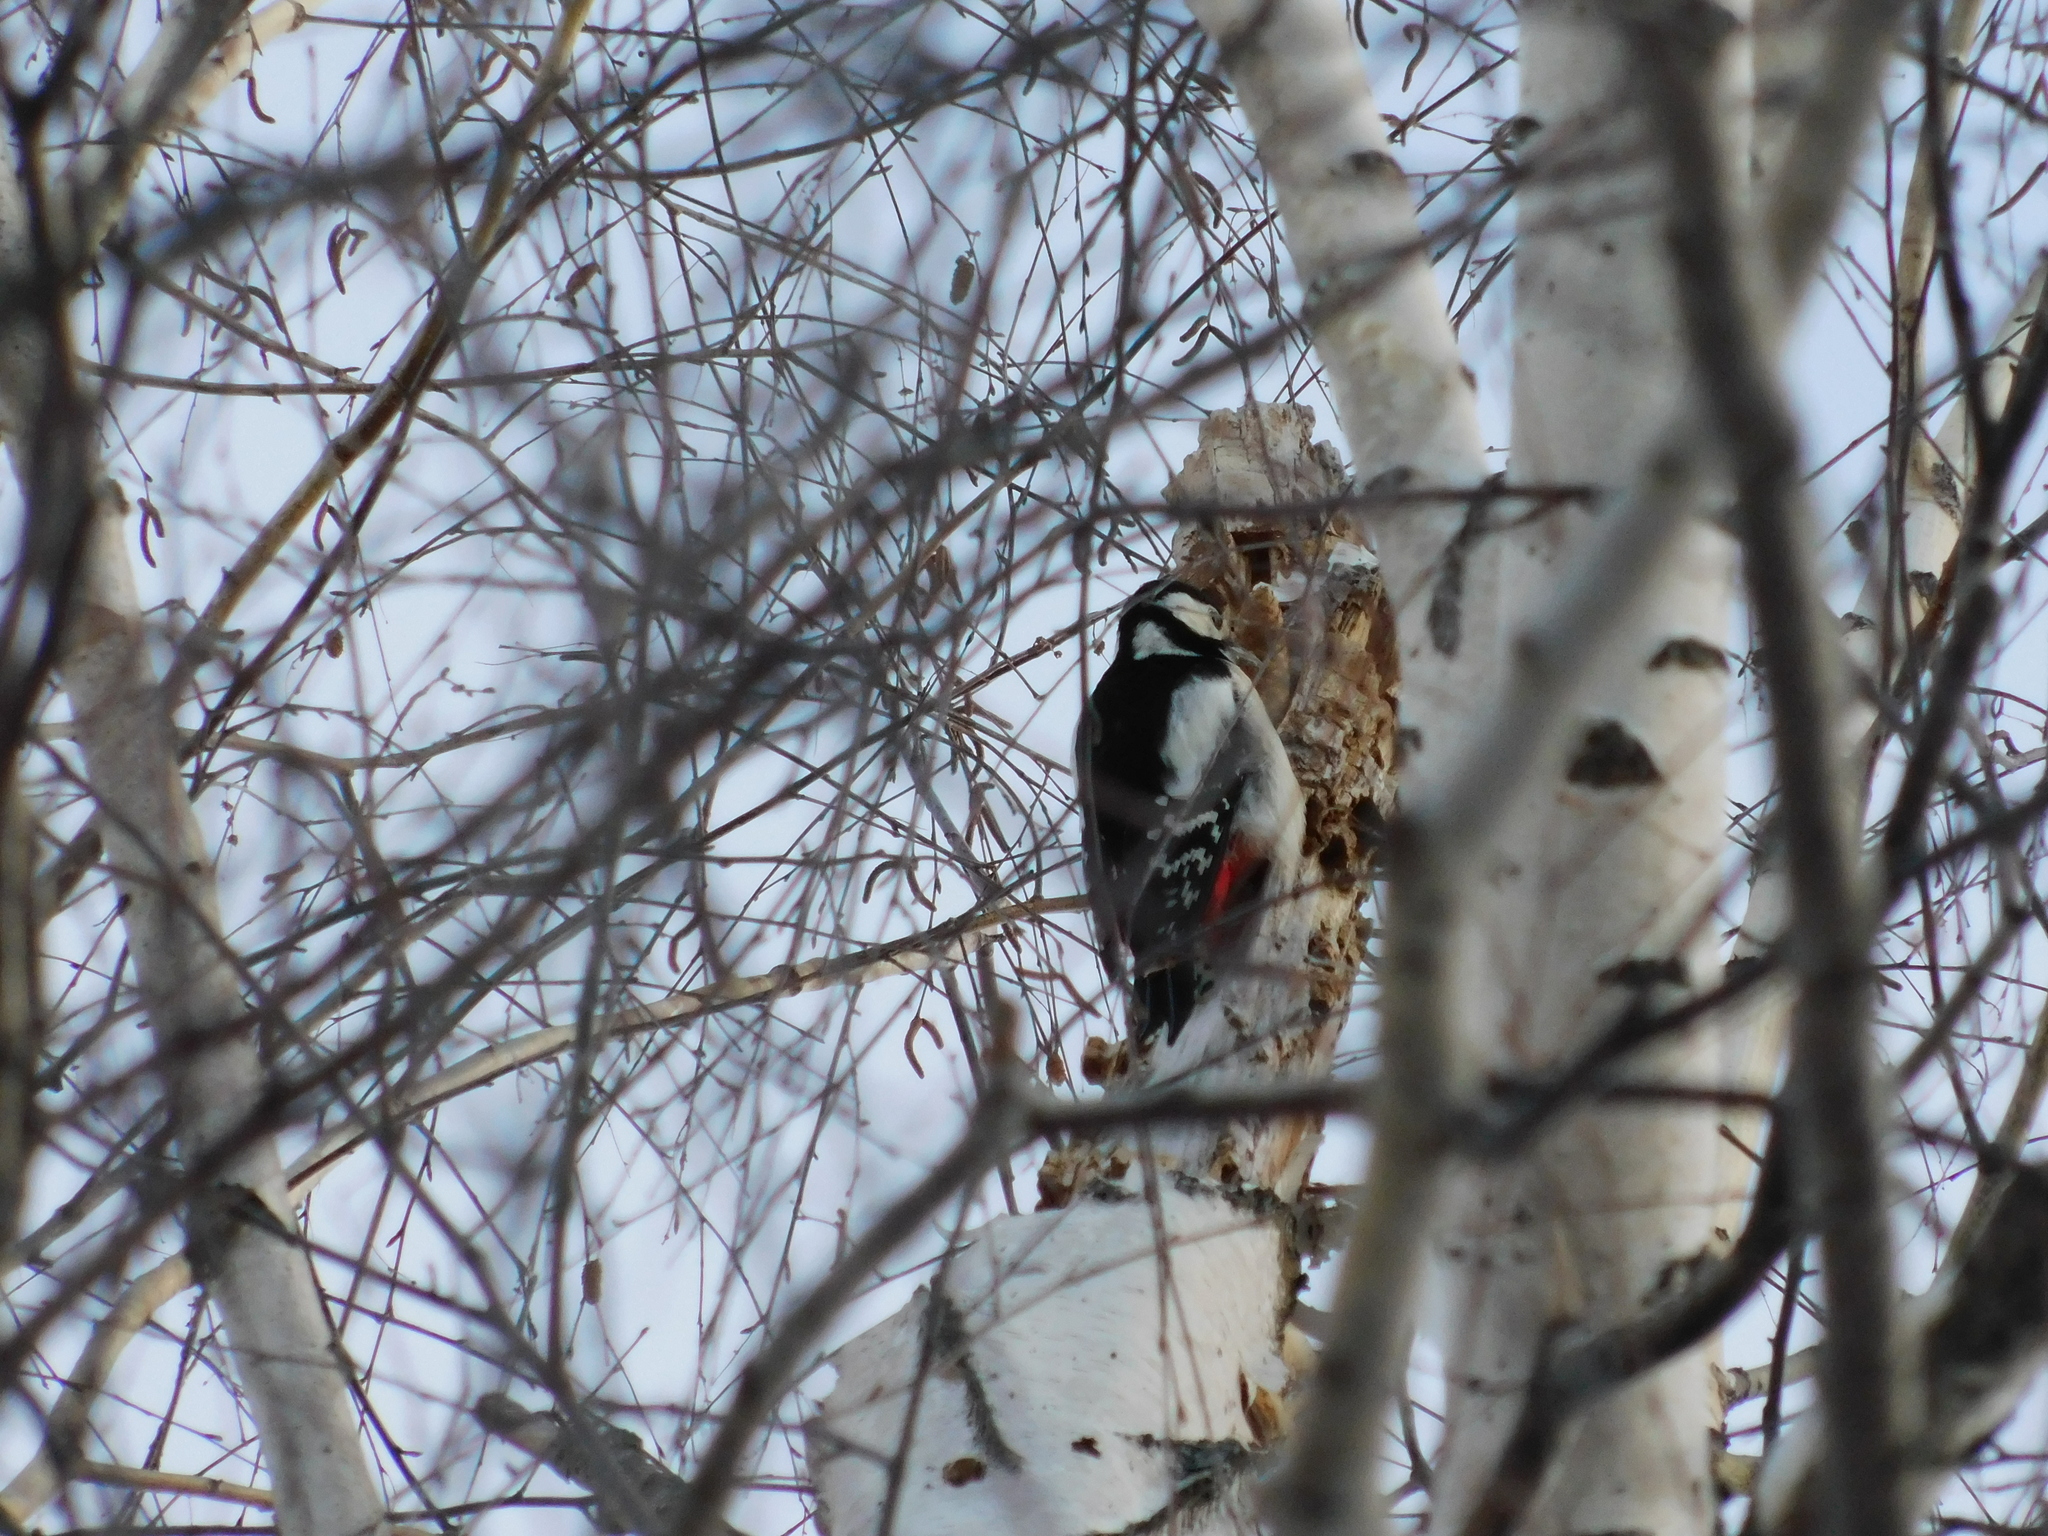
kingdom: Animalia
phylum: Chordata
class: Aves
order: Piciformes
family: Picidae
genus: Dendrocopos
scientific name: Dendrocopos major
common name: Great spotted woodpecker
